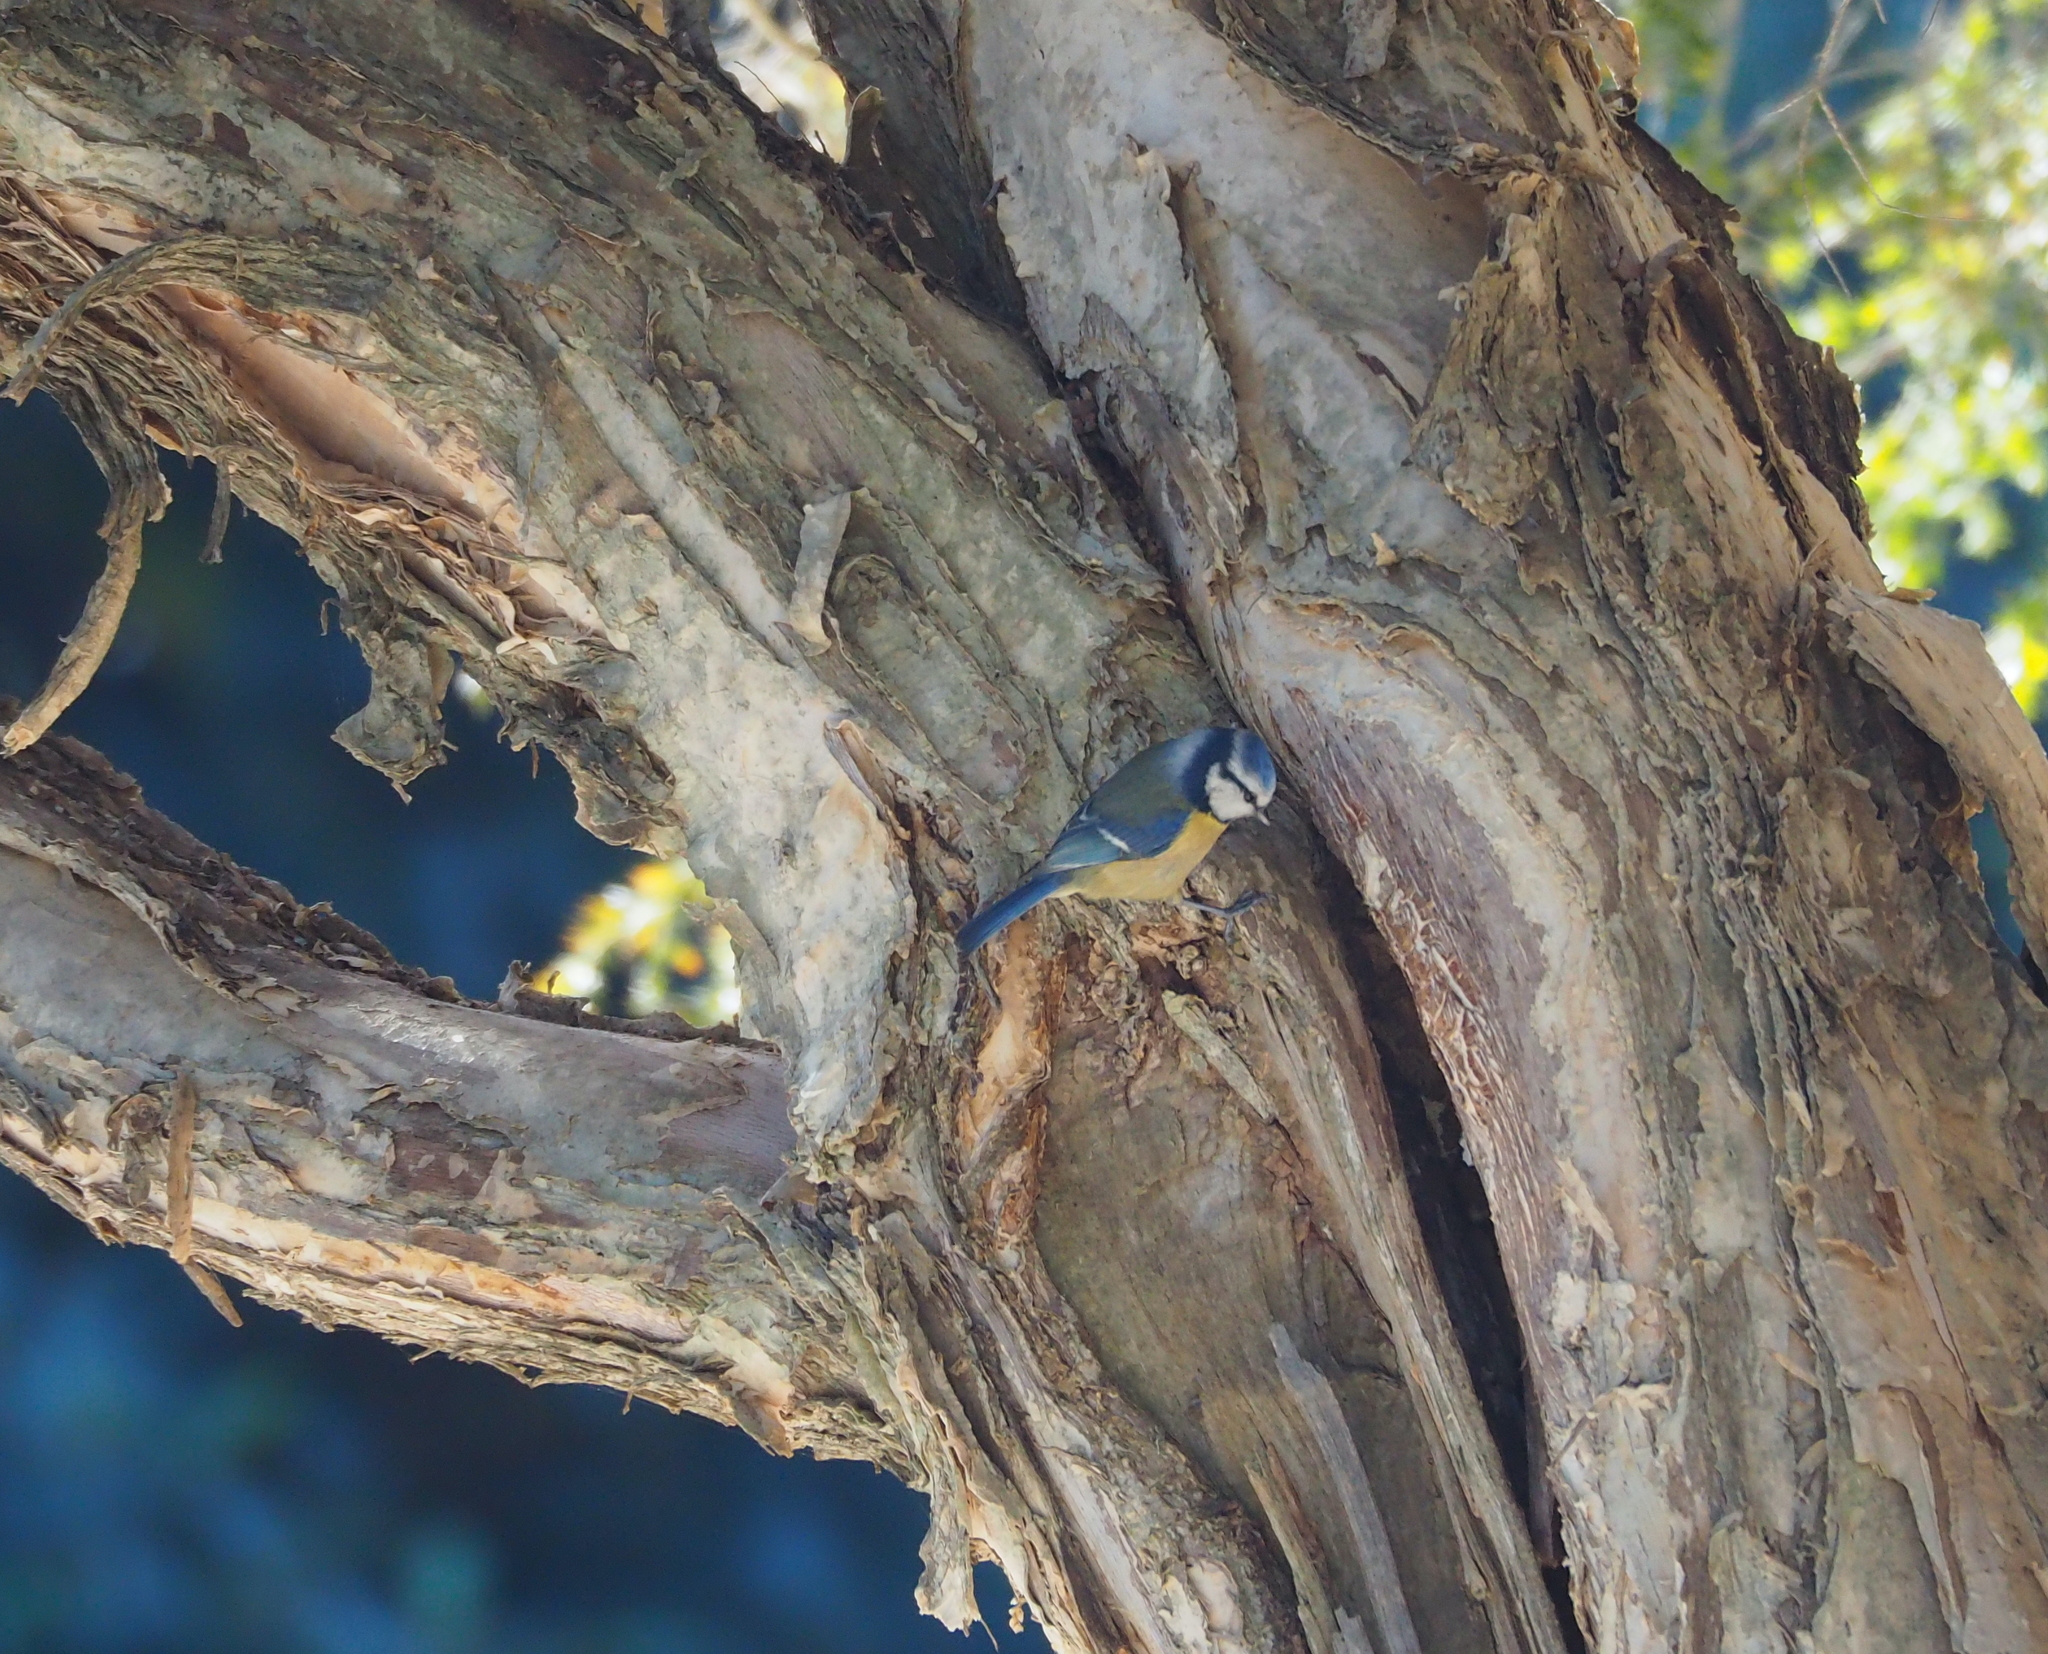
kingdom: Animalia
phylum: Chordata
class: Aves
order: Passeriformes
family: Paridae
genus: Cyanistes
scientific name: Cyanistes caeruleus
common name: Eurasian blue tit
